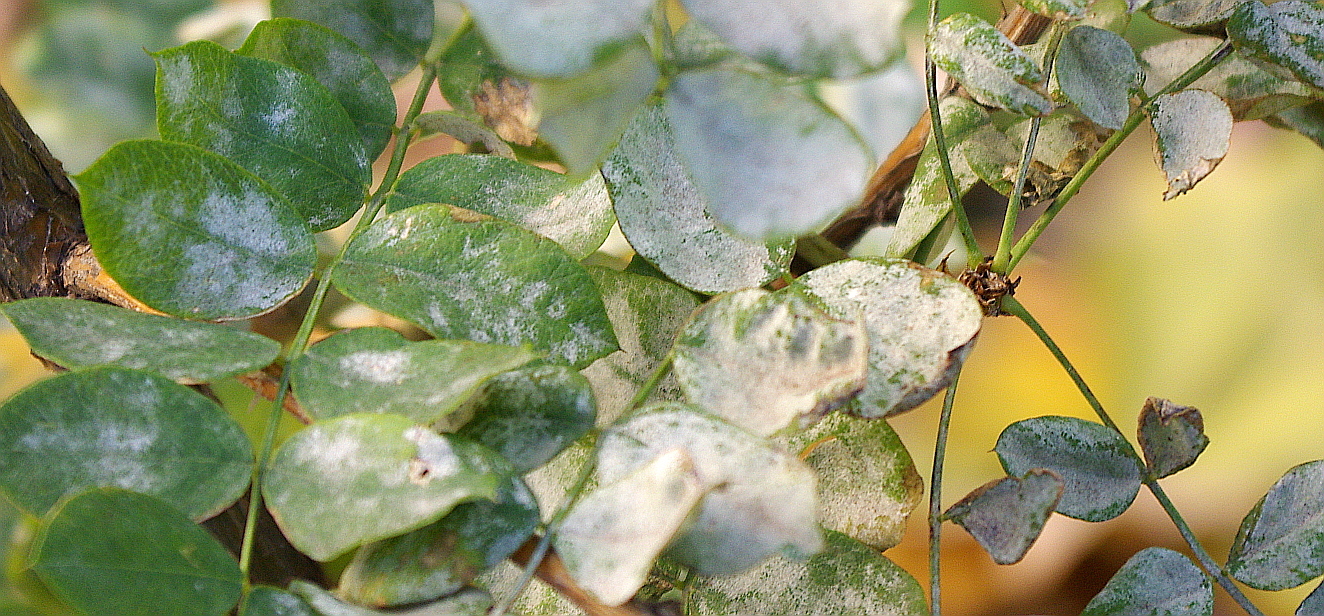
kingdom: Fungi
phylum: Ascomycota
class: Leotiomycetes
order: Helotiales
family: Erysiphaceae
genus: Erysiphe
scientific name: Erysiphe palczewskii
